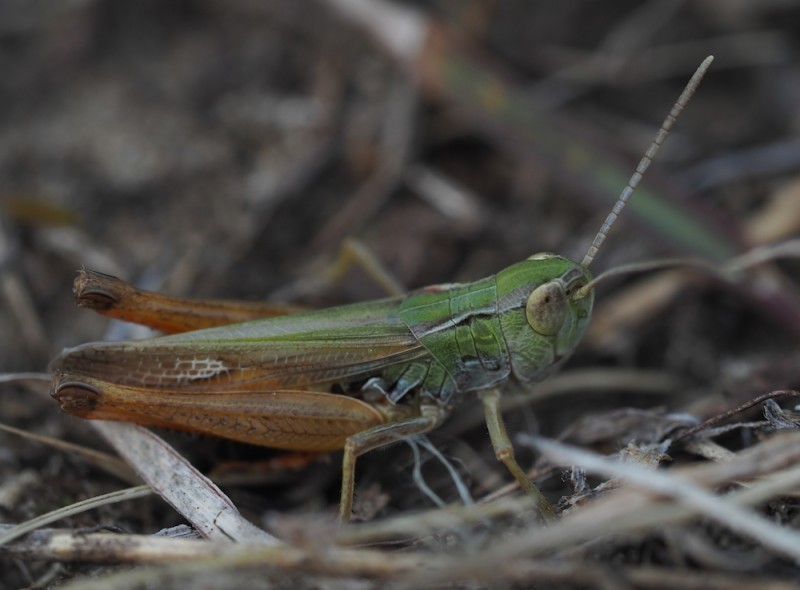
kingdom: Animalia
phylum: Arthropoda
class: Insecta
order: Orthoptera
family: Acrididae
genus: Stenobothrus
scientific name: Stenobothrus fischeri
